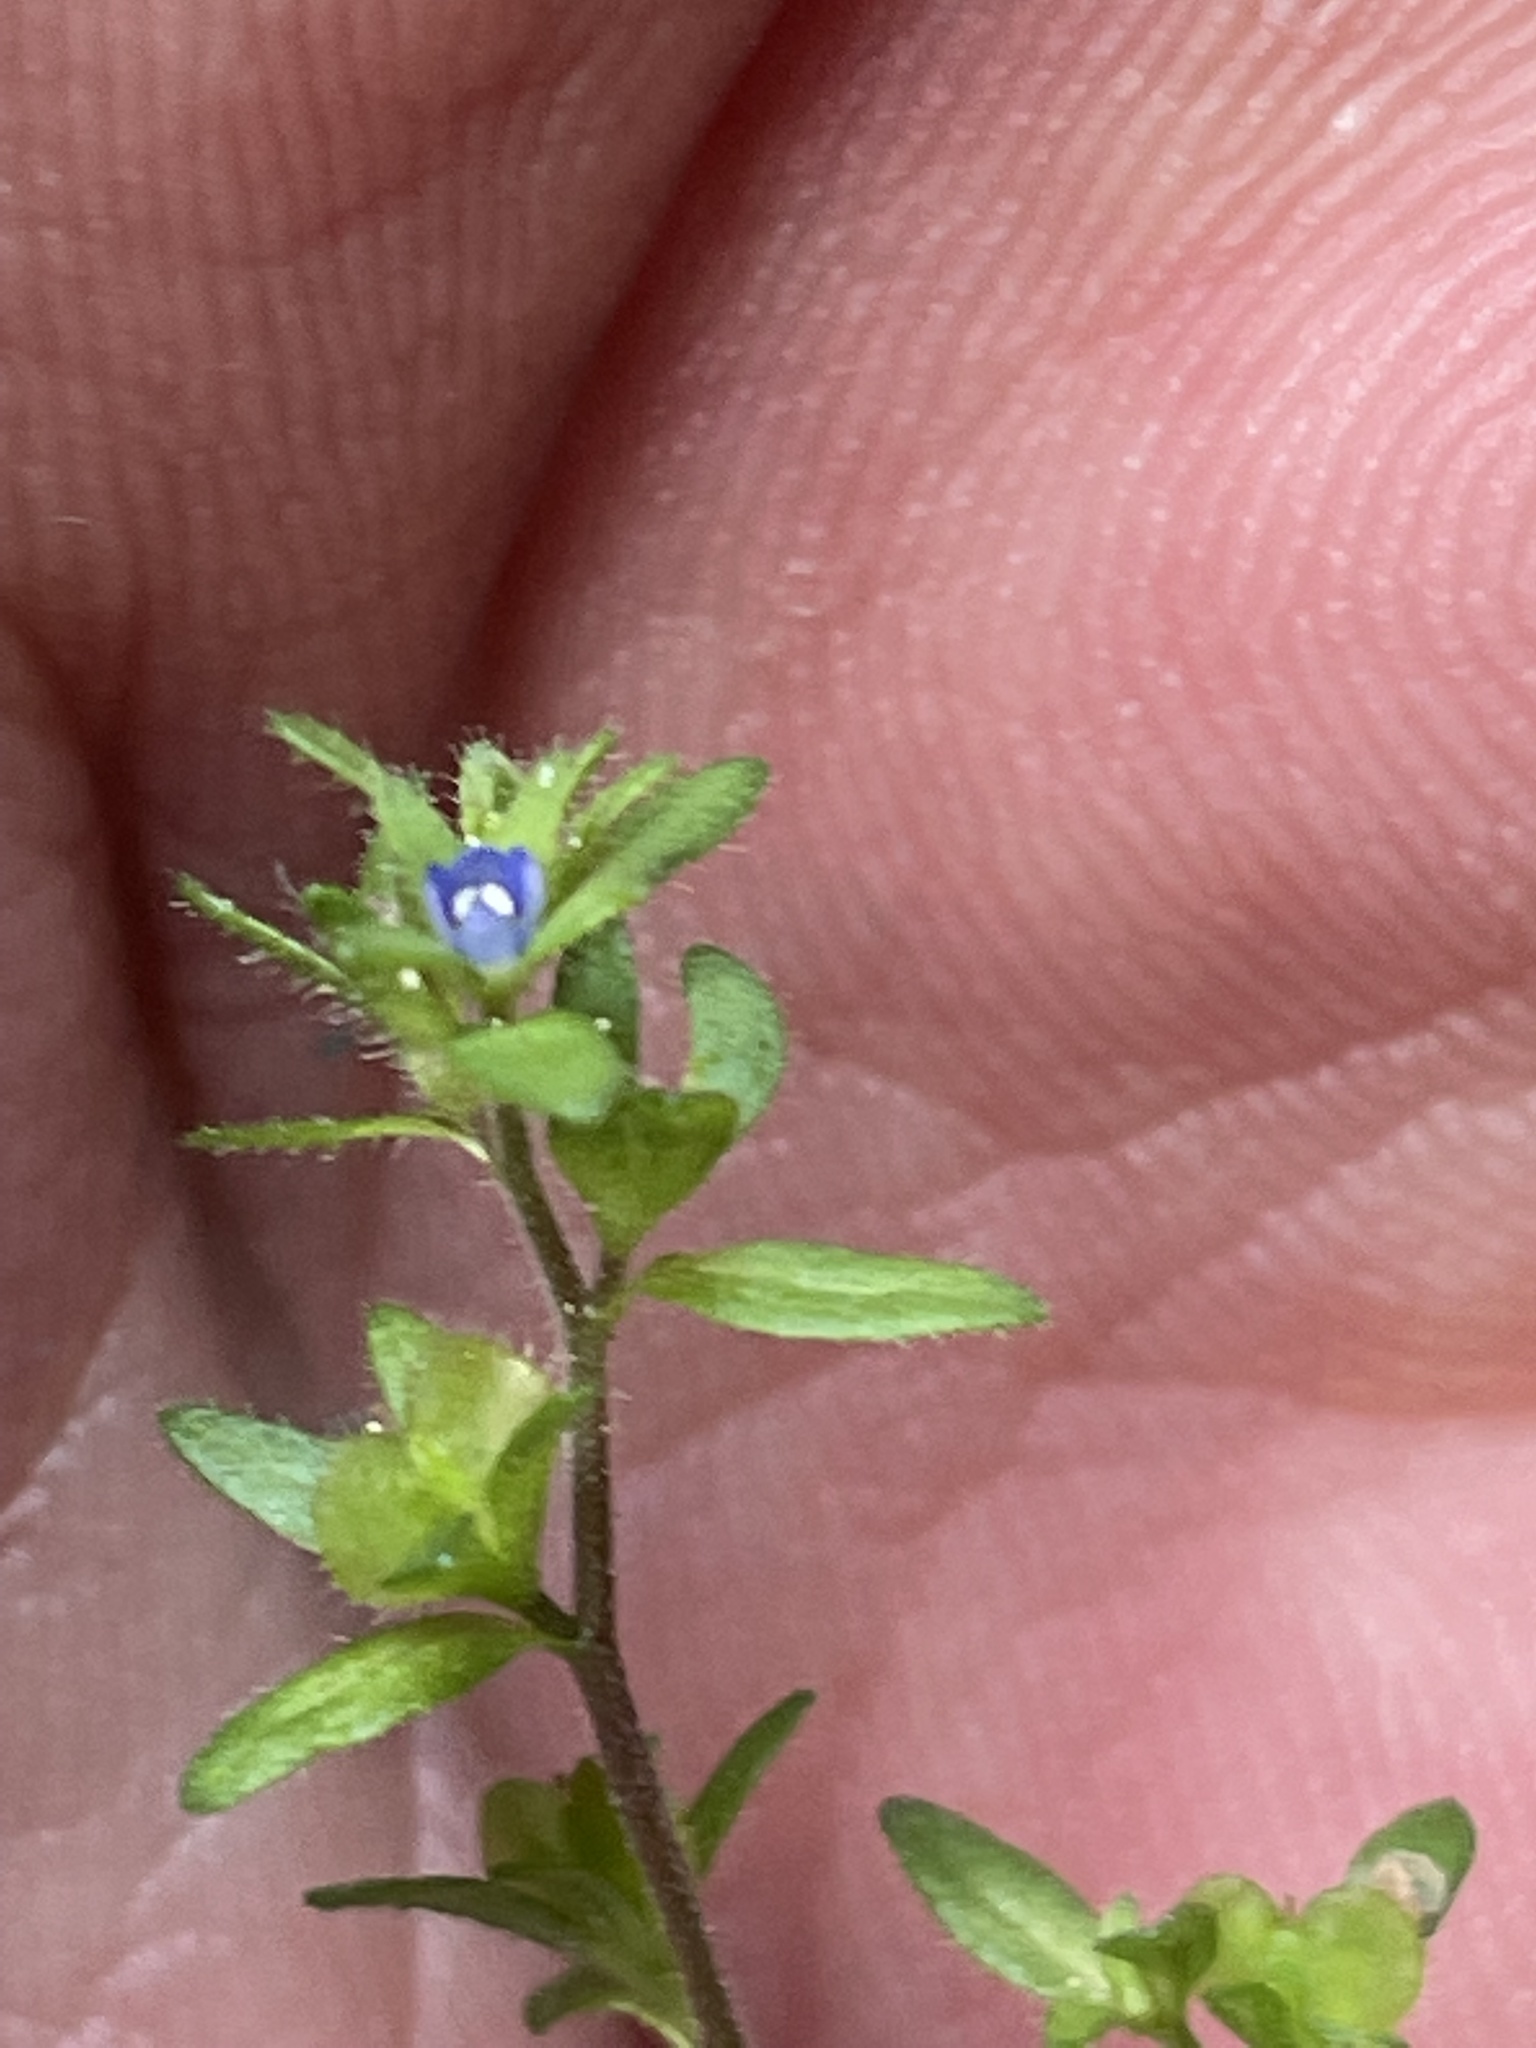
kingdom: Plantae
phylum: Tracheophyta
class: Magnoliopsida
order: Lamiales
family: Plantaginaceae
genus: Veronica
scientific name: Veronica arvensis
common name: Corn speedwell
